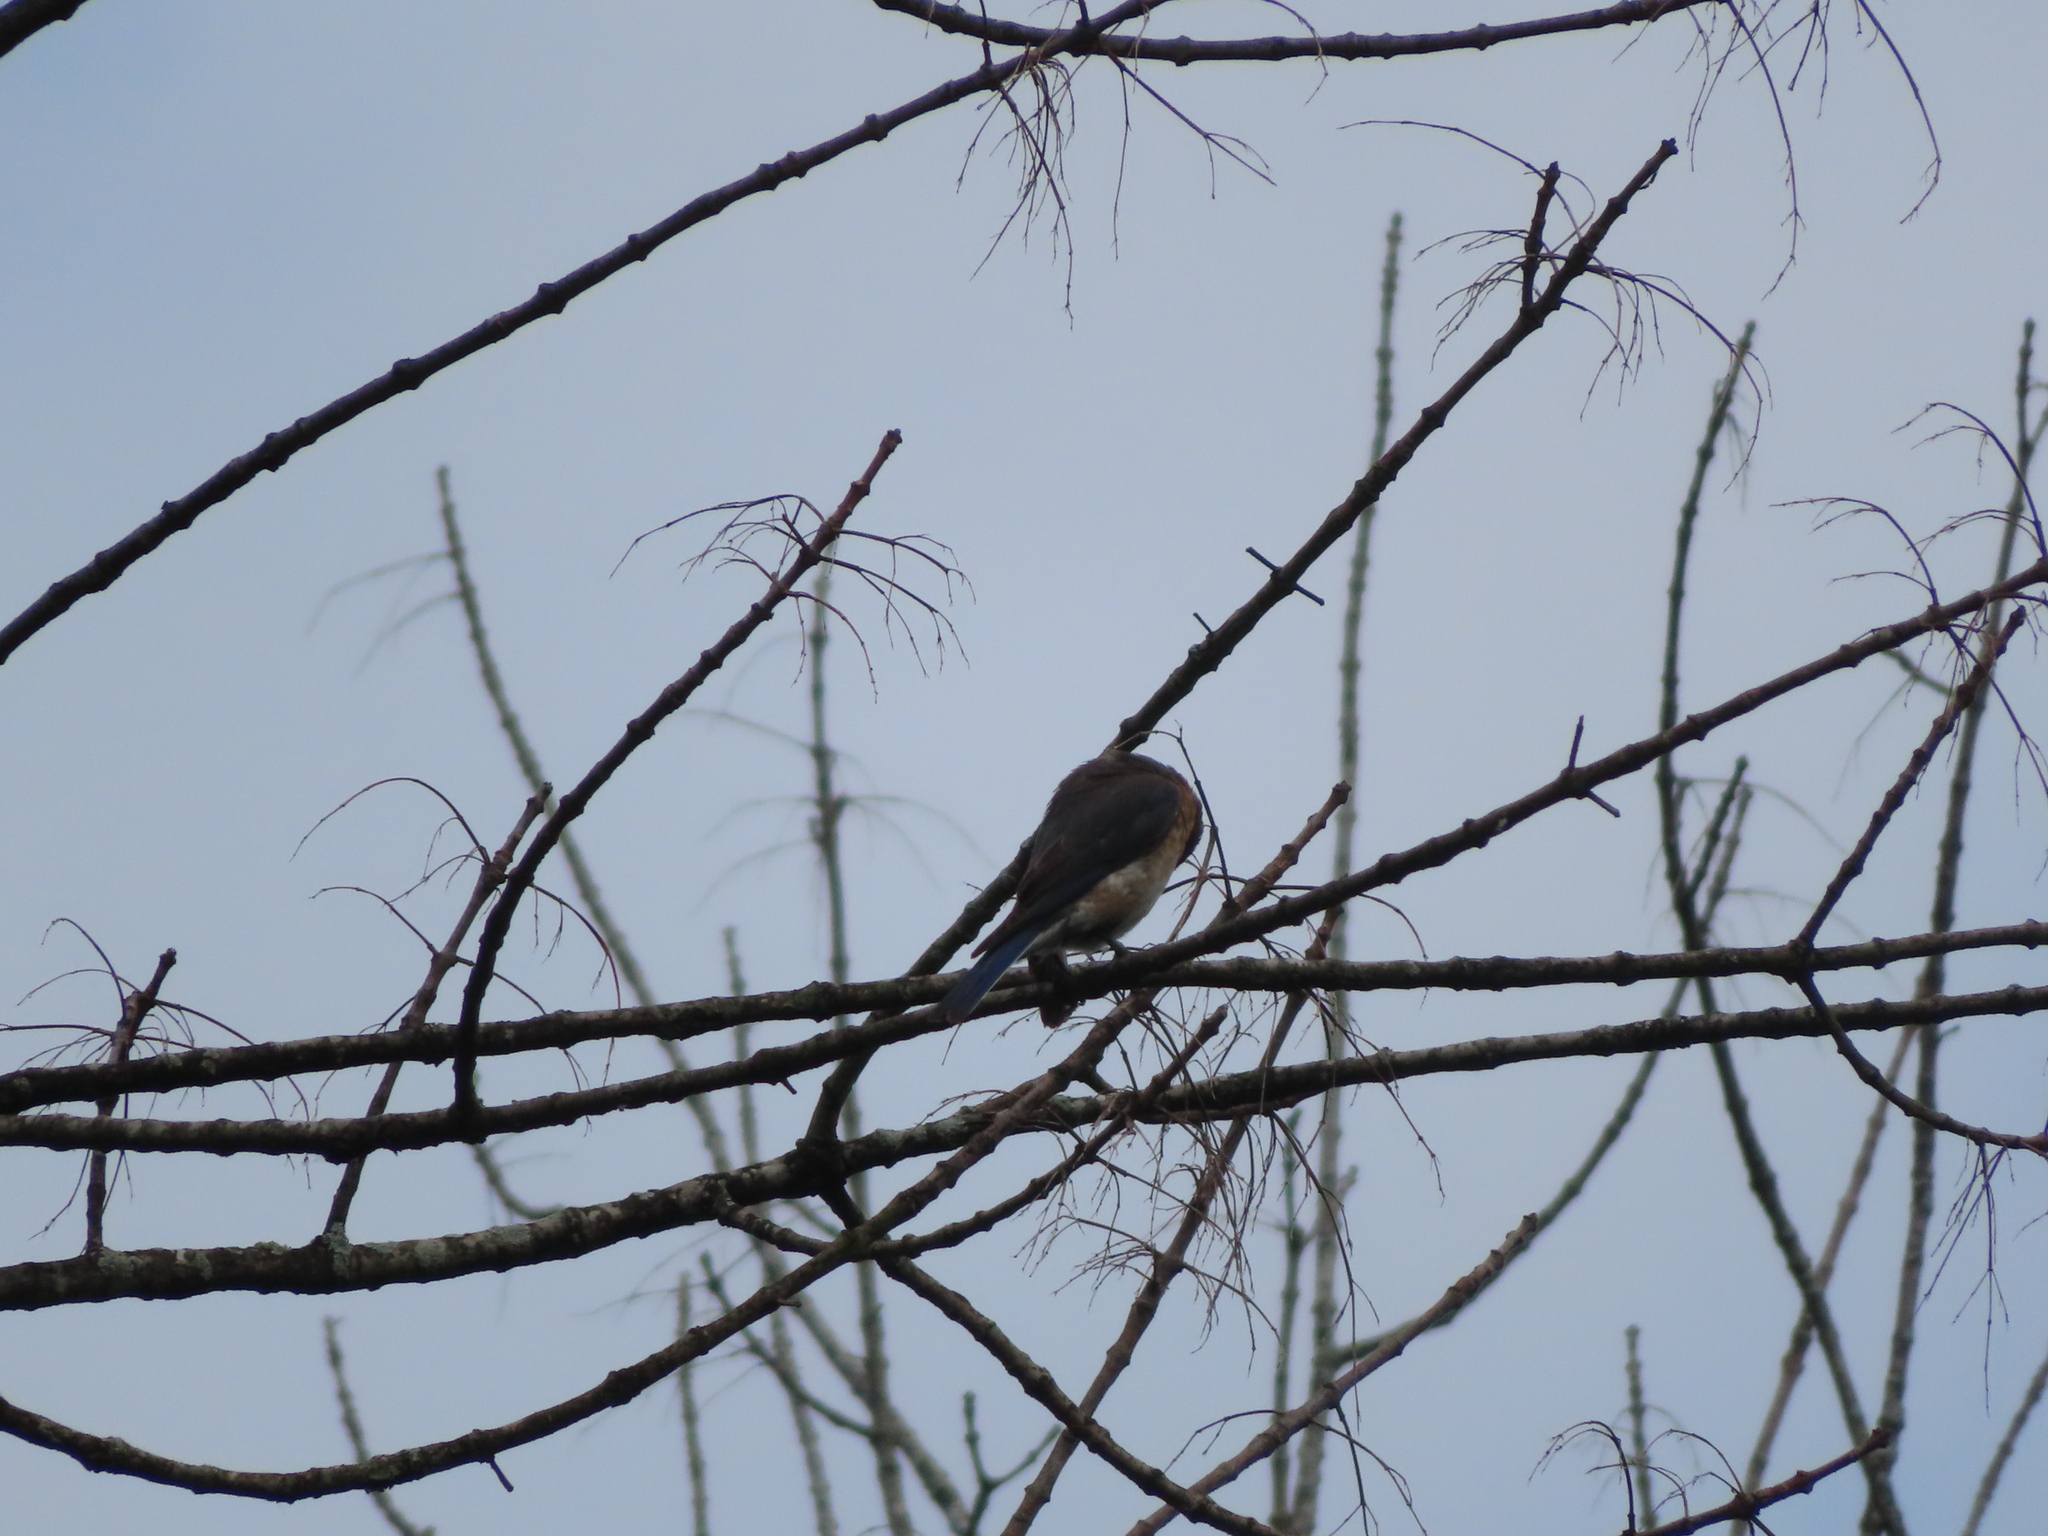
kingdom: Animalia
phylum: Chordata
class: Aves
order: Passeriformes
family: Turdidae
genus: Sialia
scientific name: Sialia sialis
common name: Eastern bluebird
